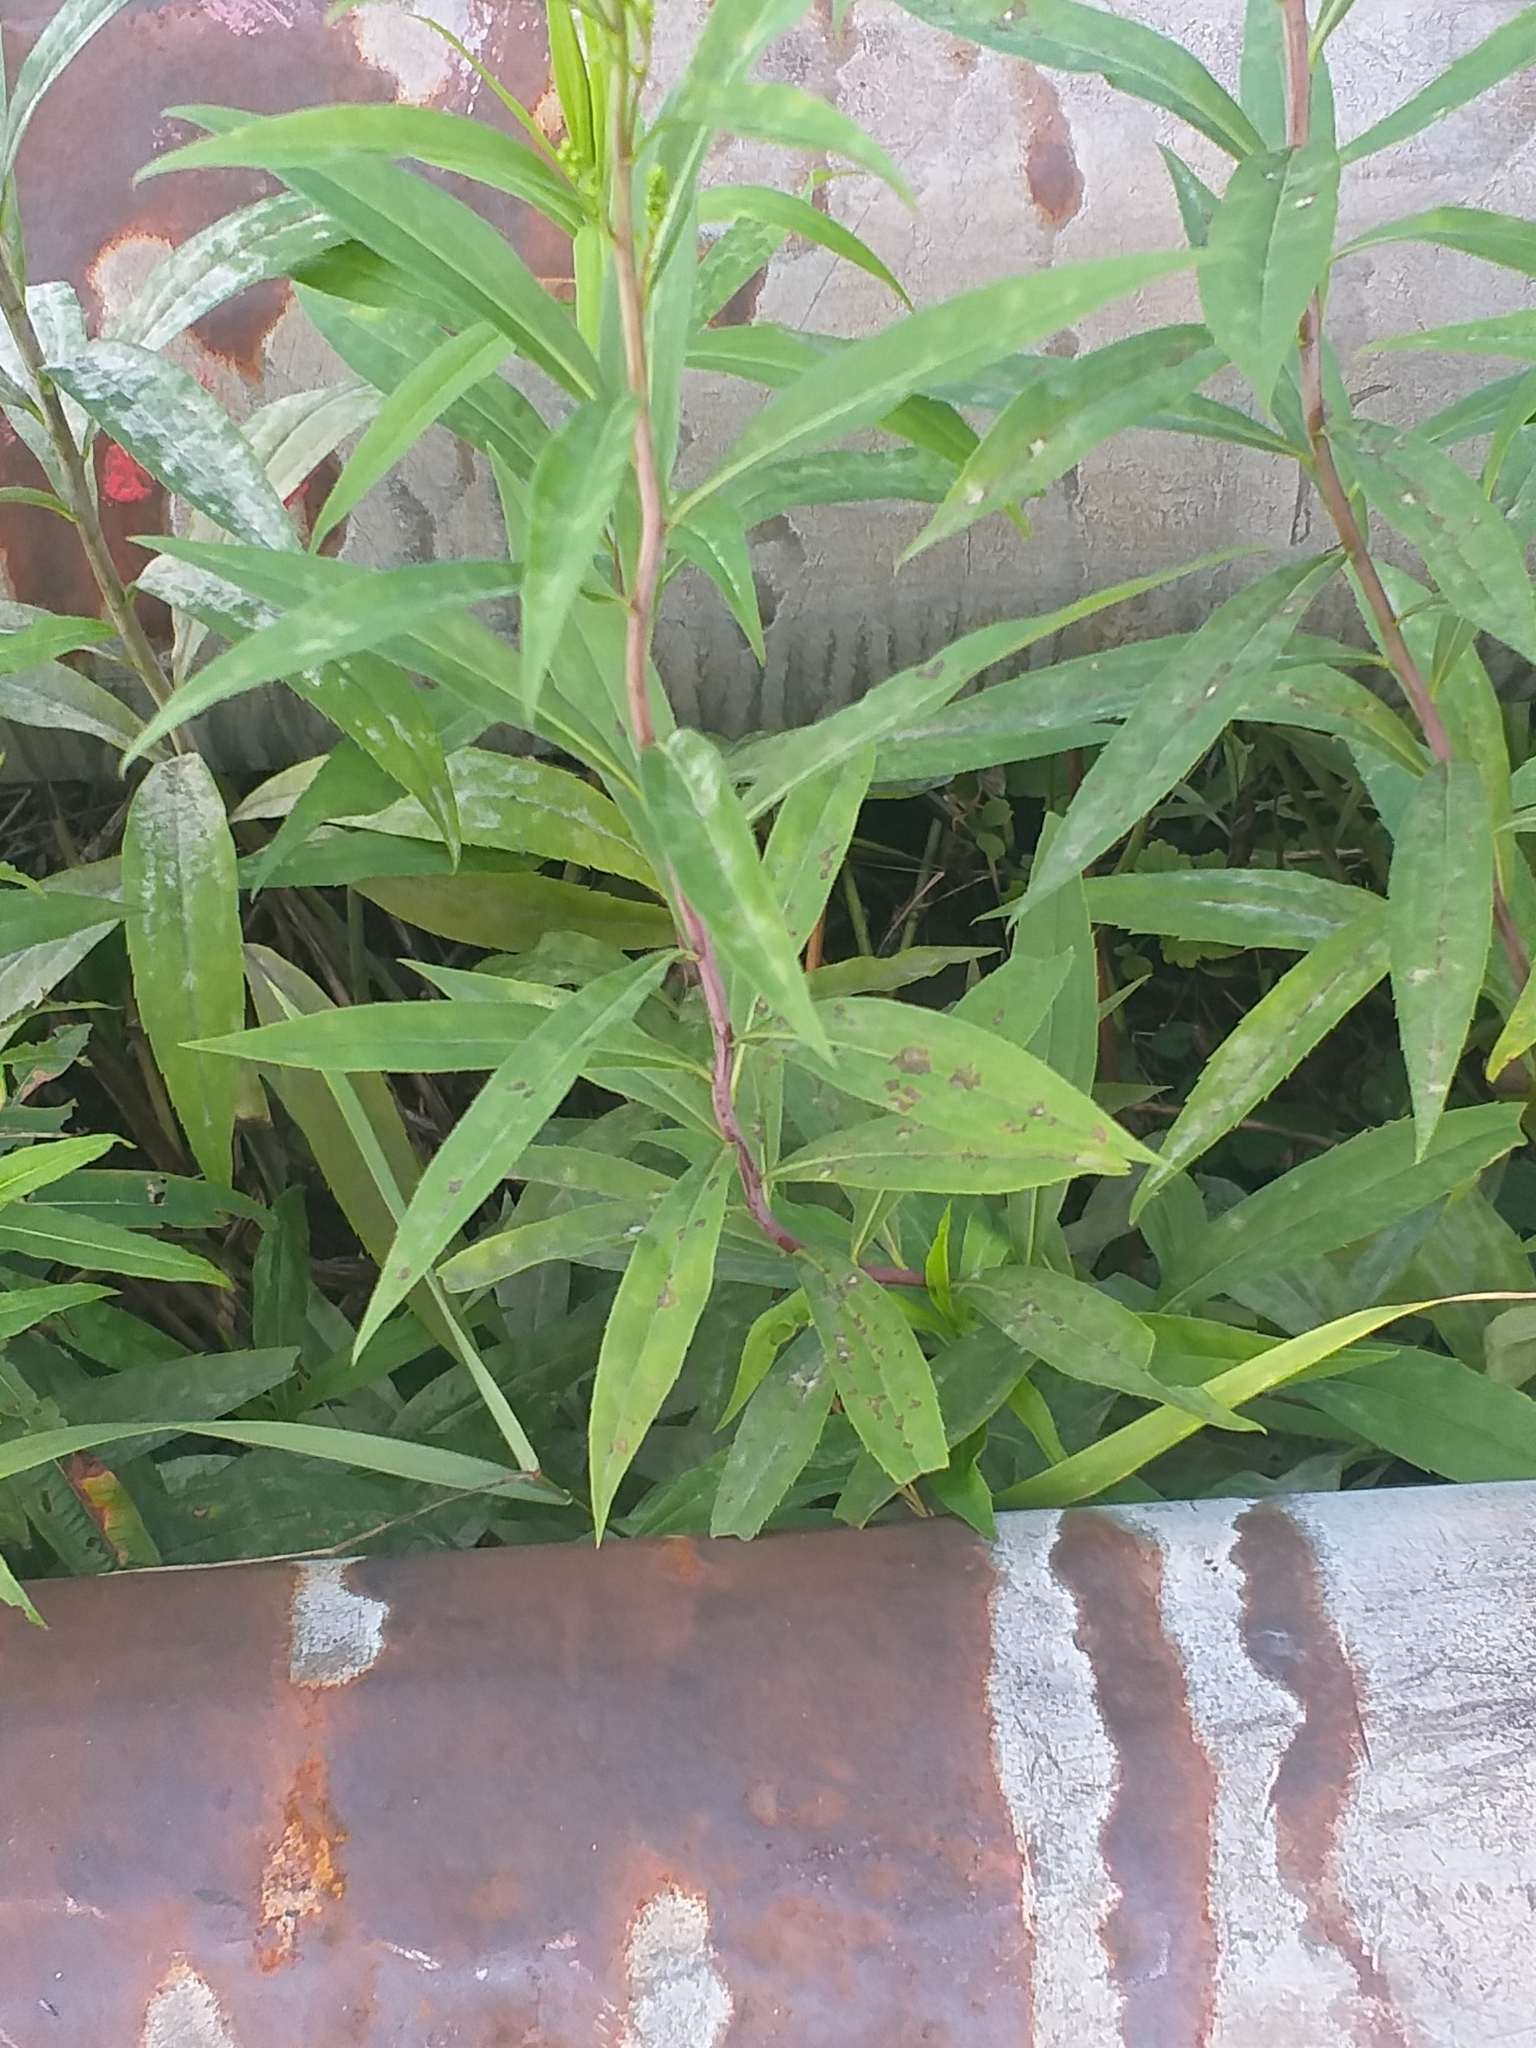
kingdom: Plantae
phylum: Tracheophyta
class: Magnoliopsida
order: Asterales
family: Asteraceae
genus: Solidago
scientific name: Solidago gigantea
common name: Giant goldenrod
